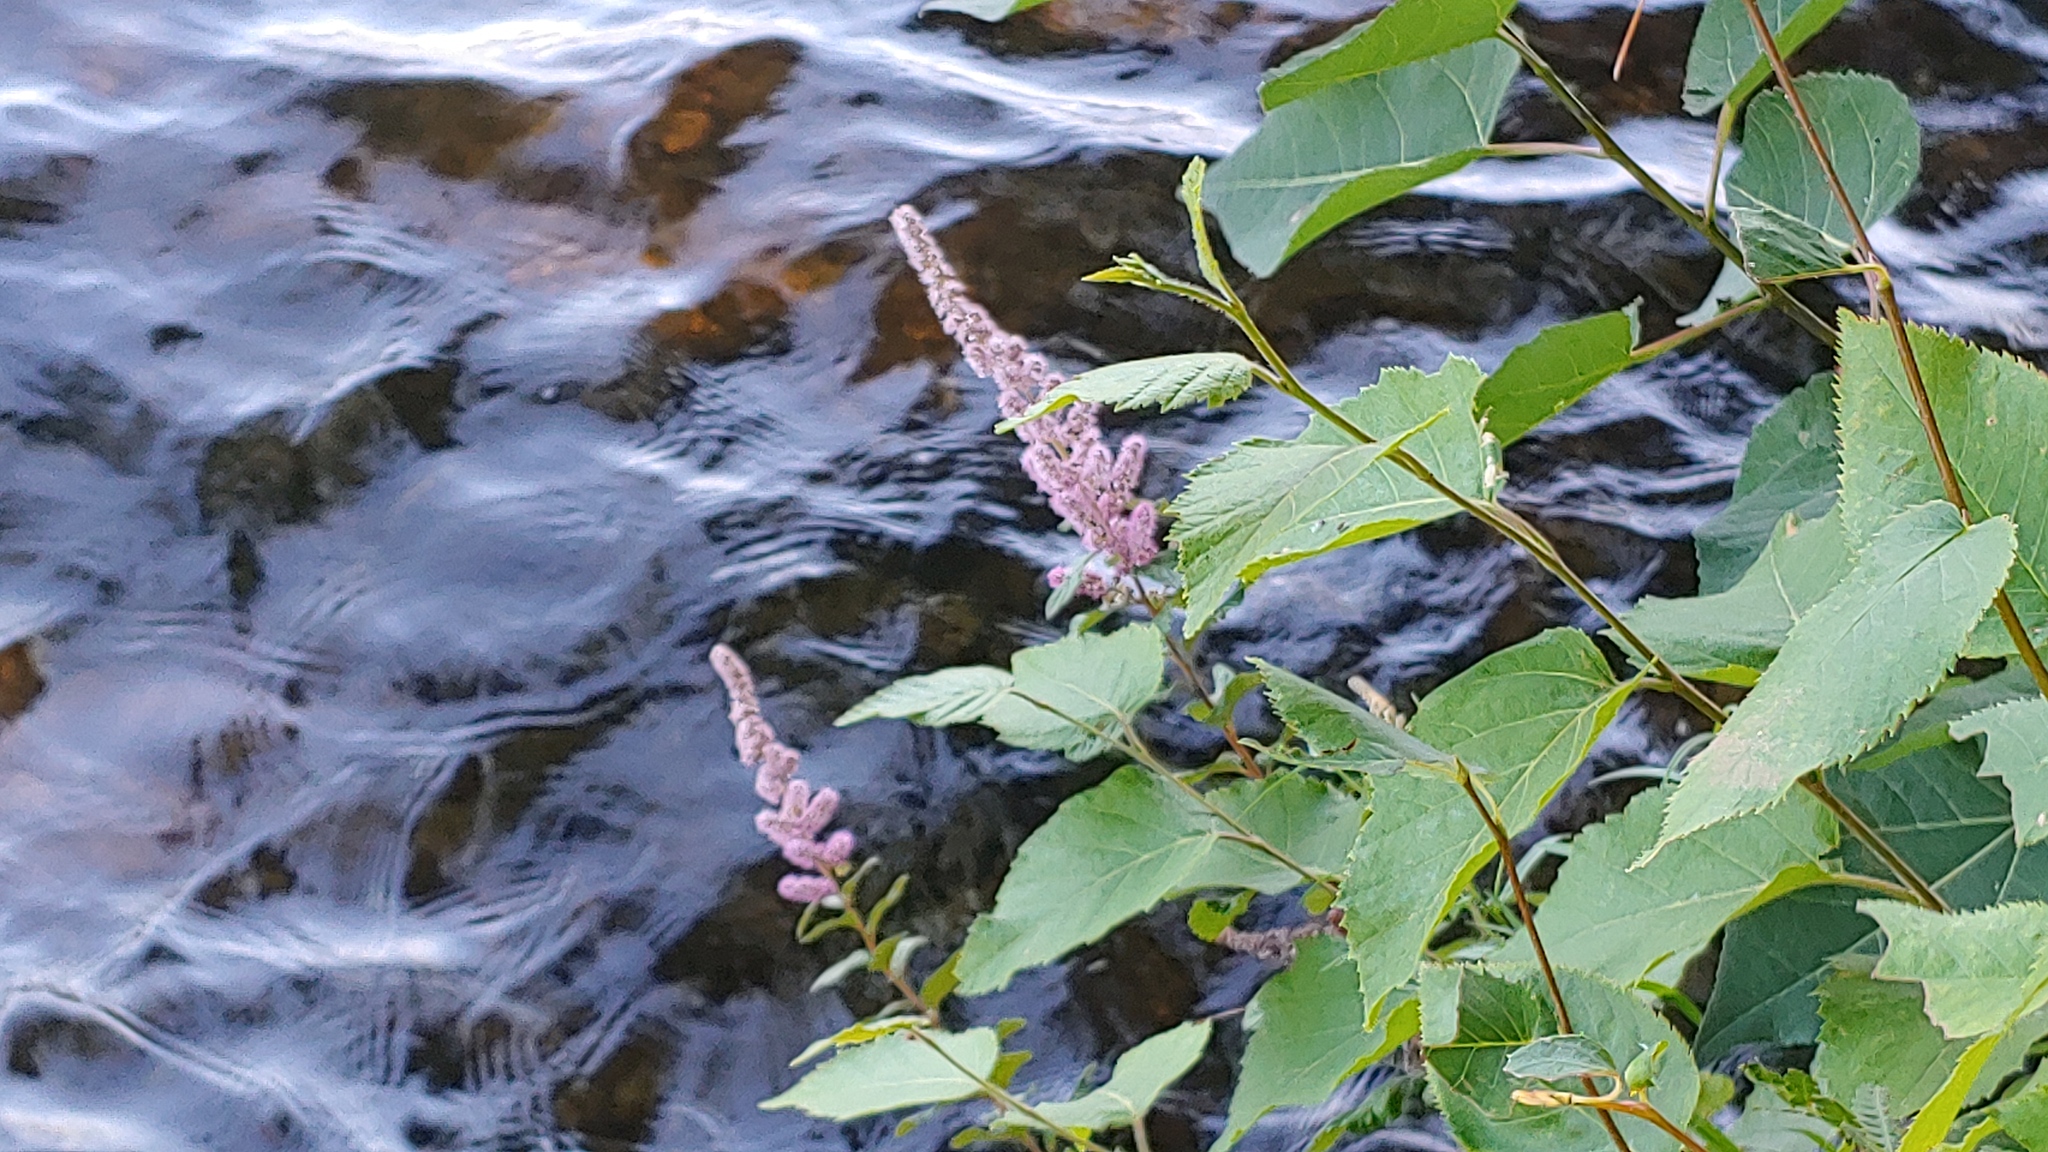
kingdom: Plantae
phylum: Tracheophyta
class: Magnoliopsida
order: Rosales
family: Rosaceae
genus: Spiraea
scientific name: Spiraea tomentosa
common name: Hardhack
